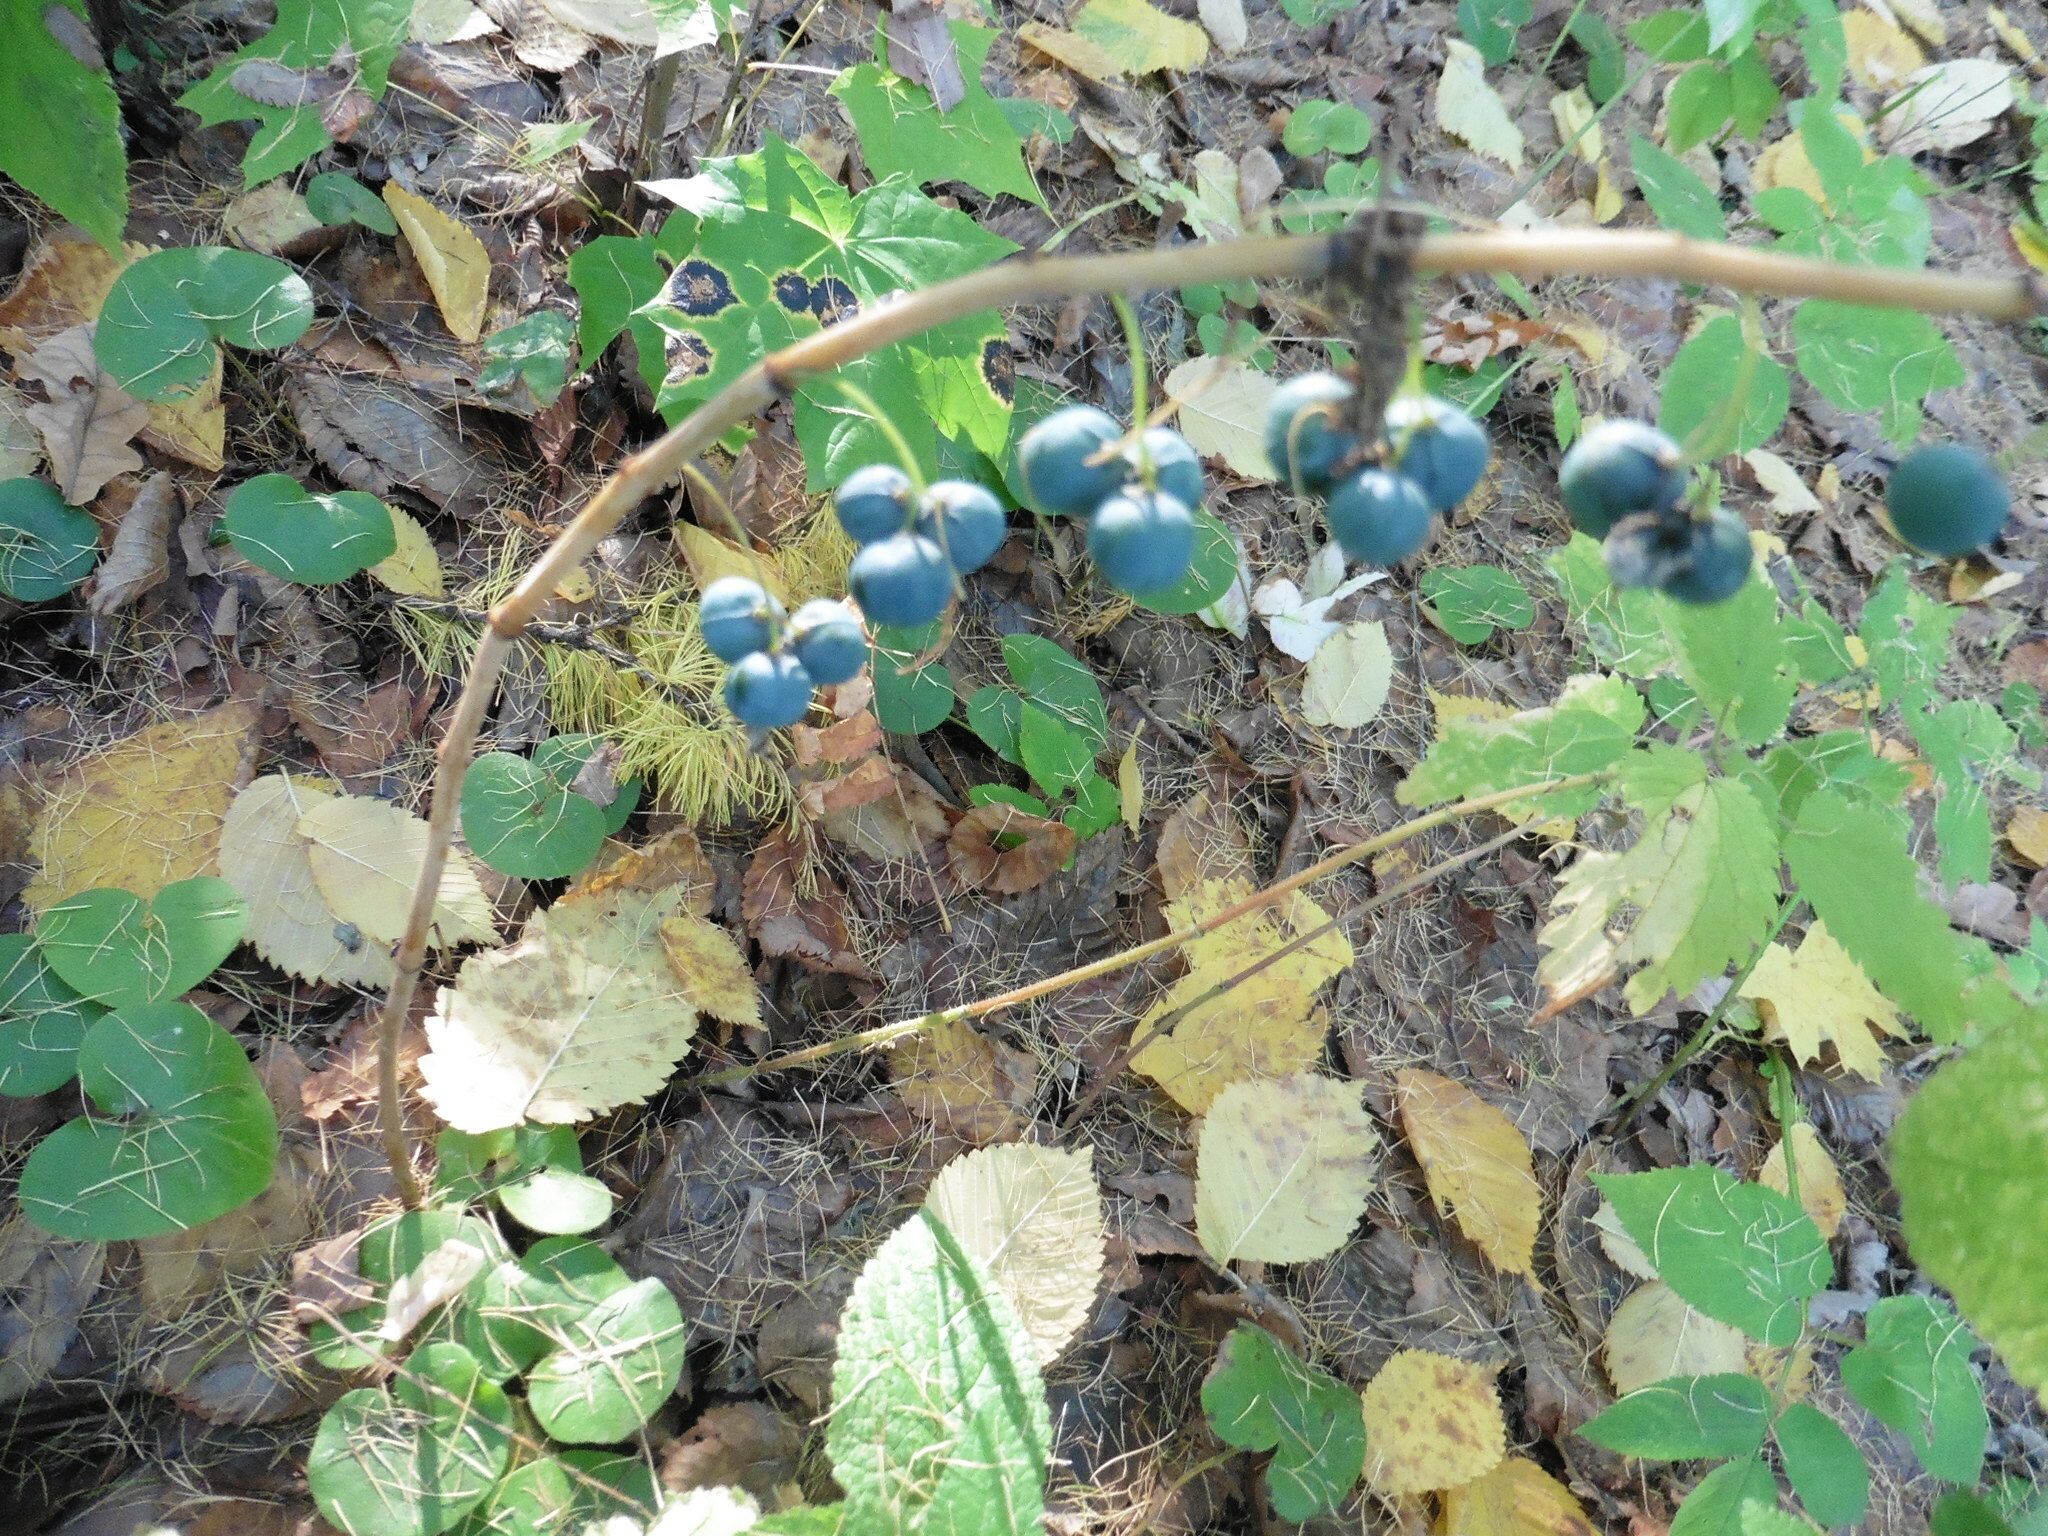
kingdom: Plantae
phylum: Tracheophyta
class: Liliopsida
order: Asparagales
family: Asparagaceae
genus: Polygonatum
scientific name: Polygonatum multiflorum
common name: Solomon's-seal
